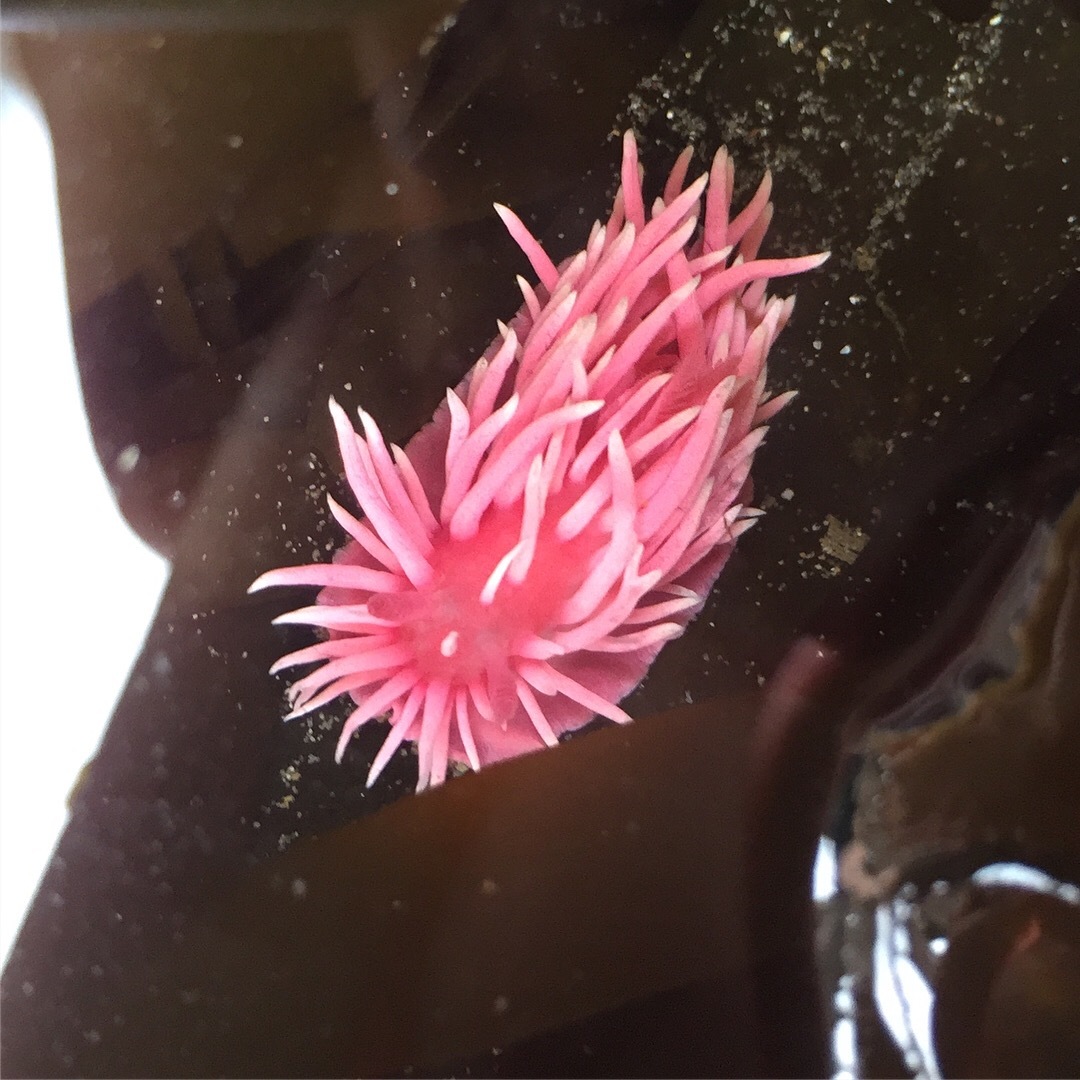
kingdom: Animalia
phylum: Mollusca
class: Gastropoda
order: Nudibranchia
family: Goniodorididae
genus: Okenia
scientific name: Okenia
